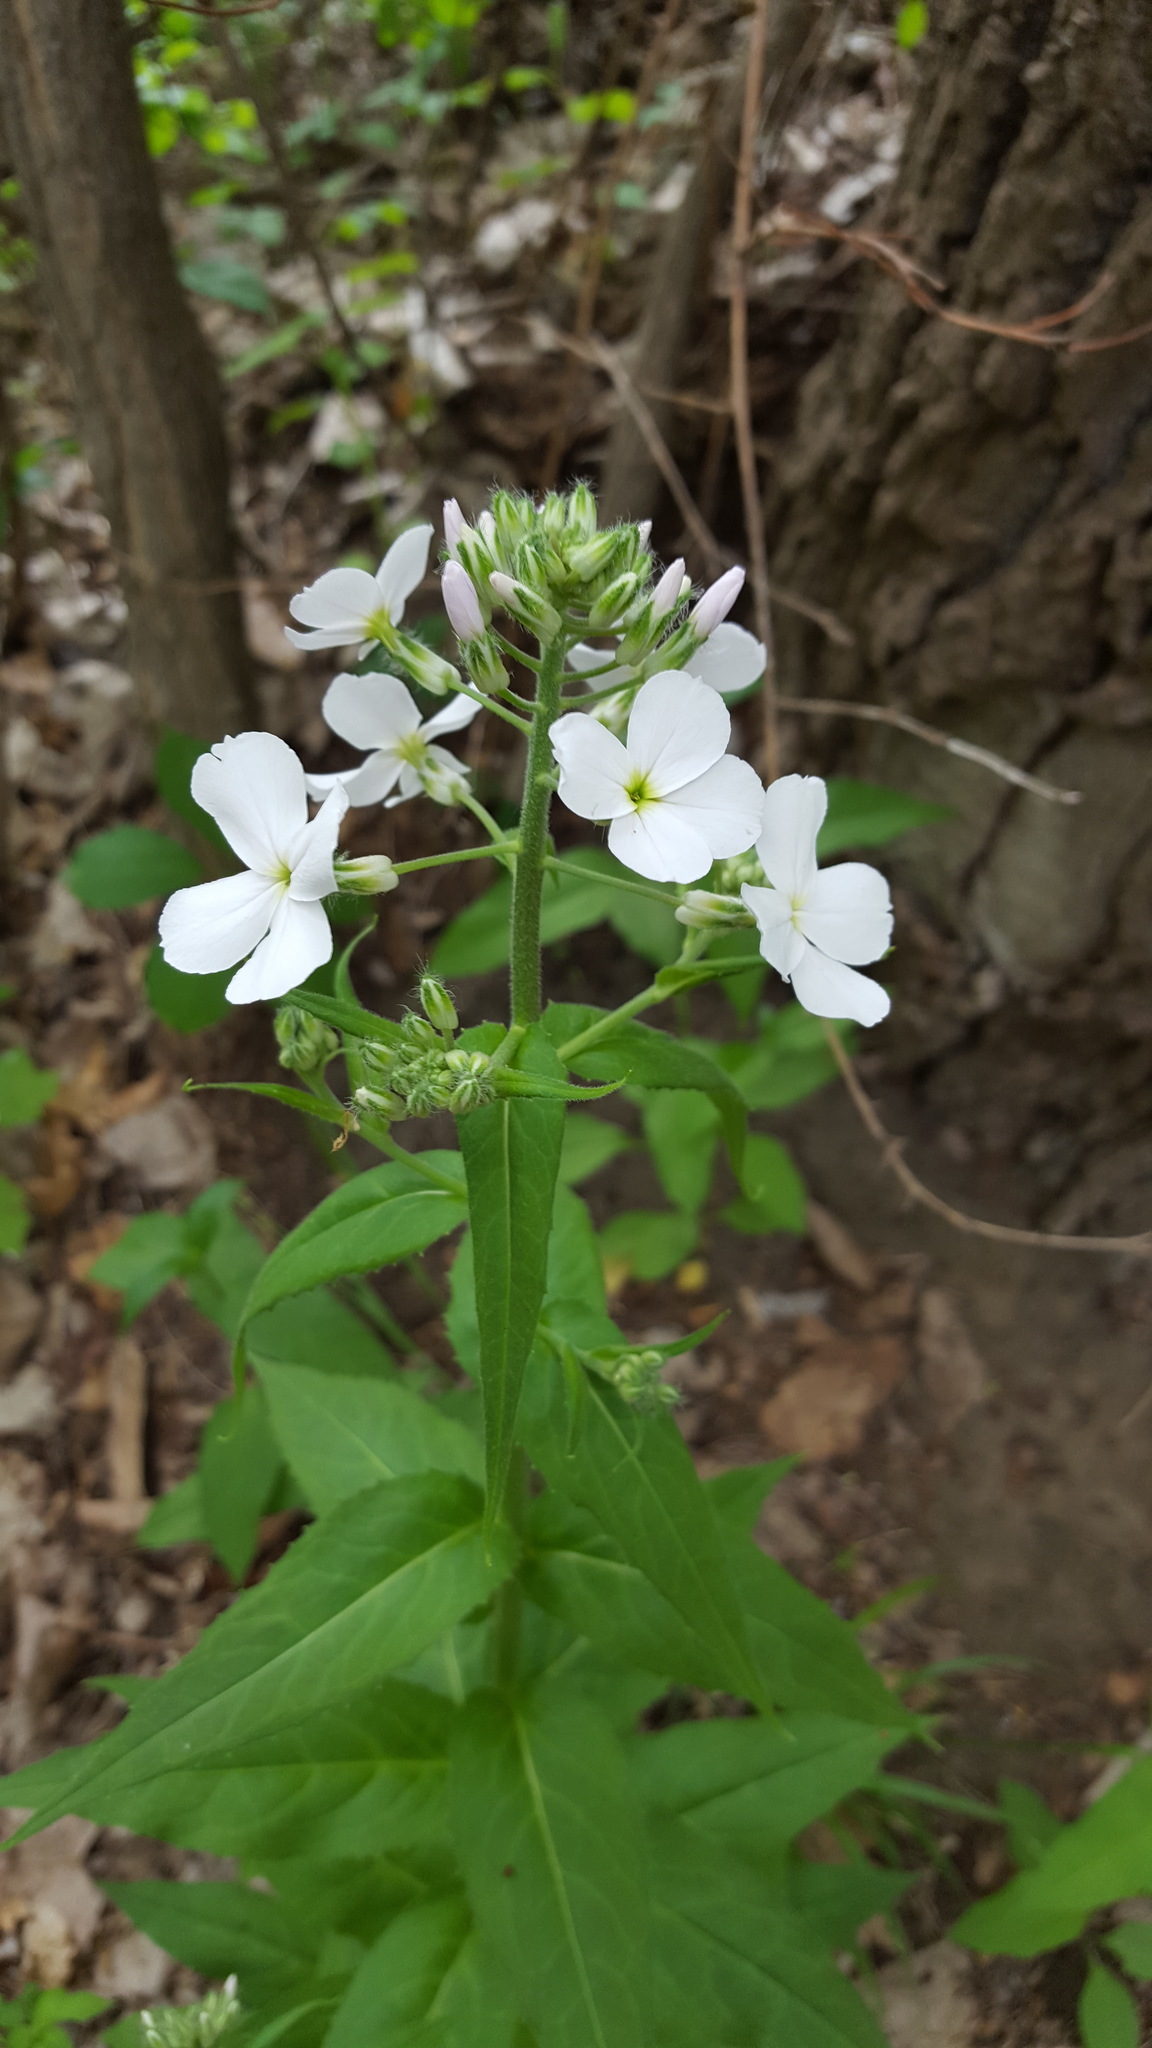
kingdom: Plantae
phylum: Tracheophyta
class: Magnoliopsida
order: Brassicales
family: Brassicaceae
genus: Hesperis
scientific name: Hesperis matronalis
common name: Dame's-violet
